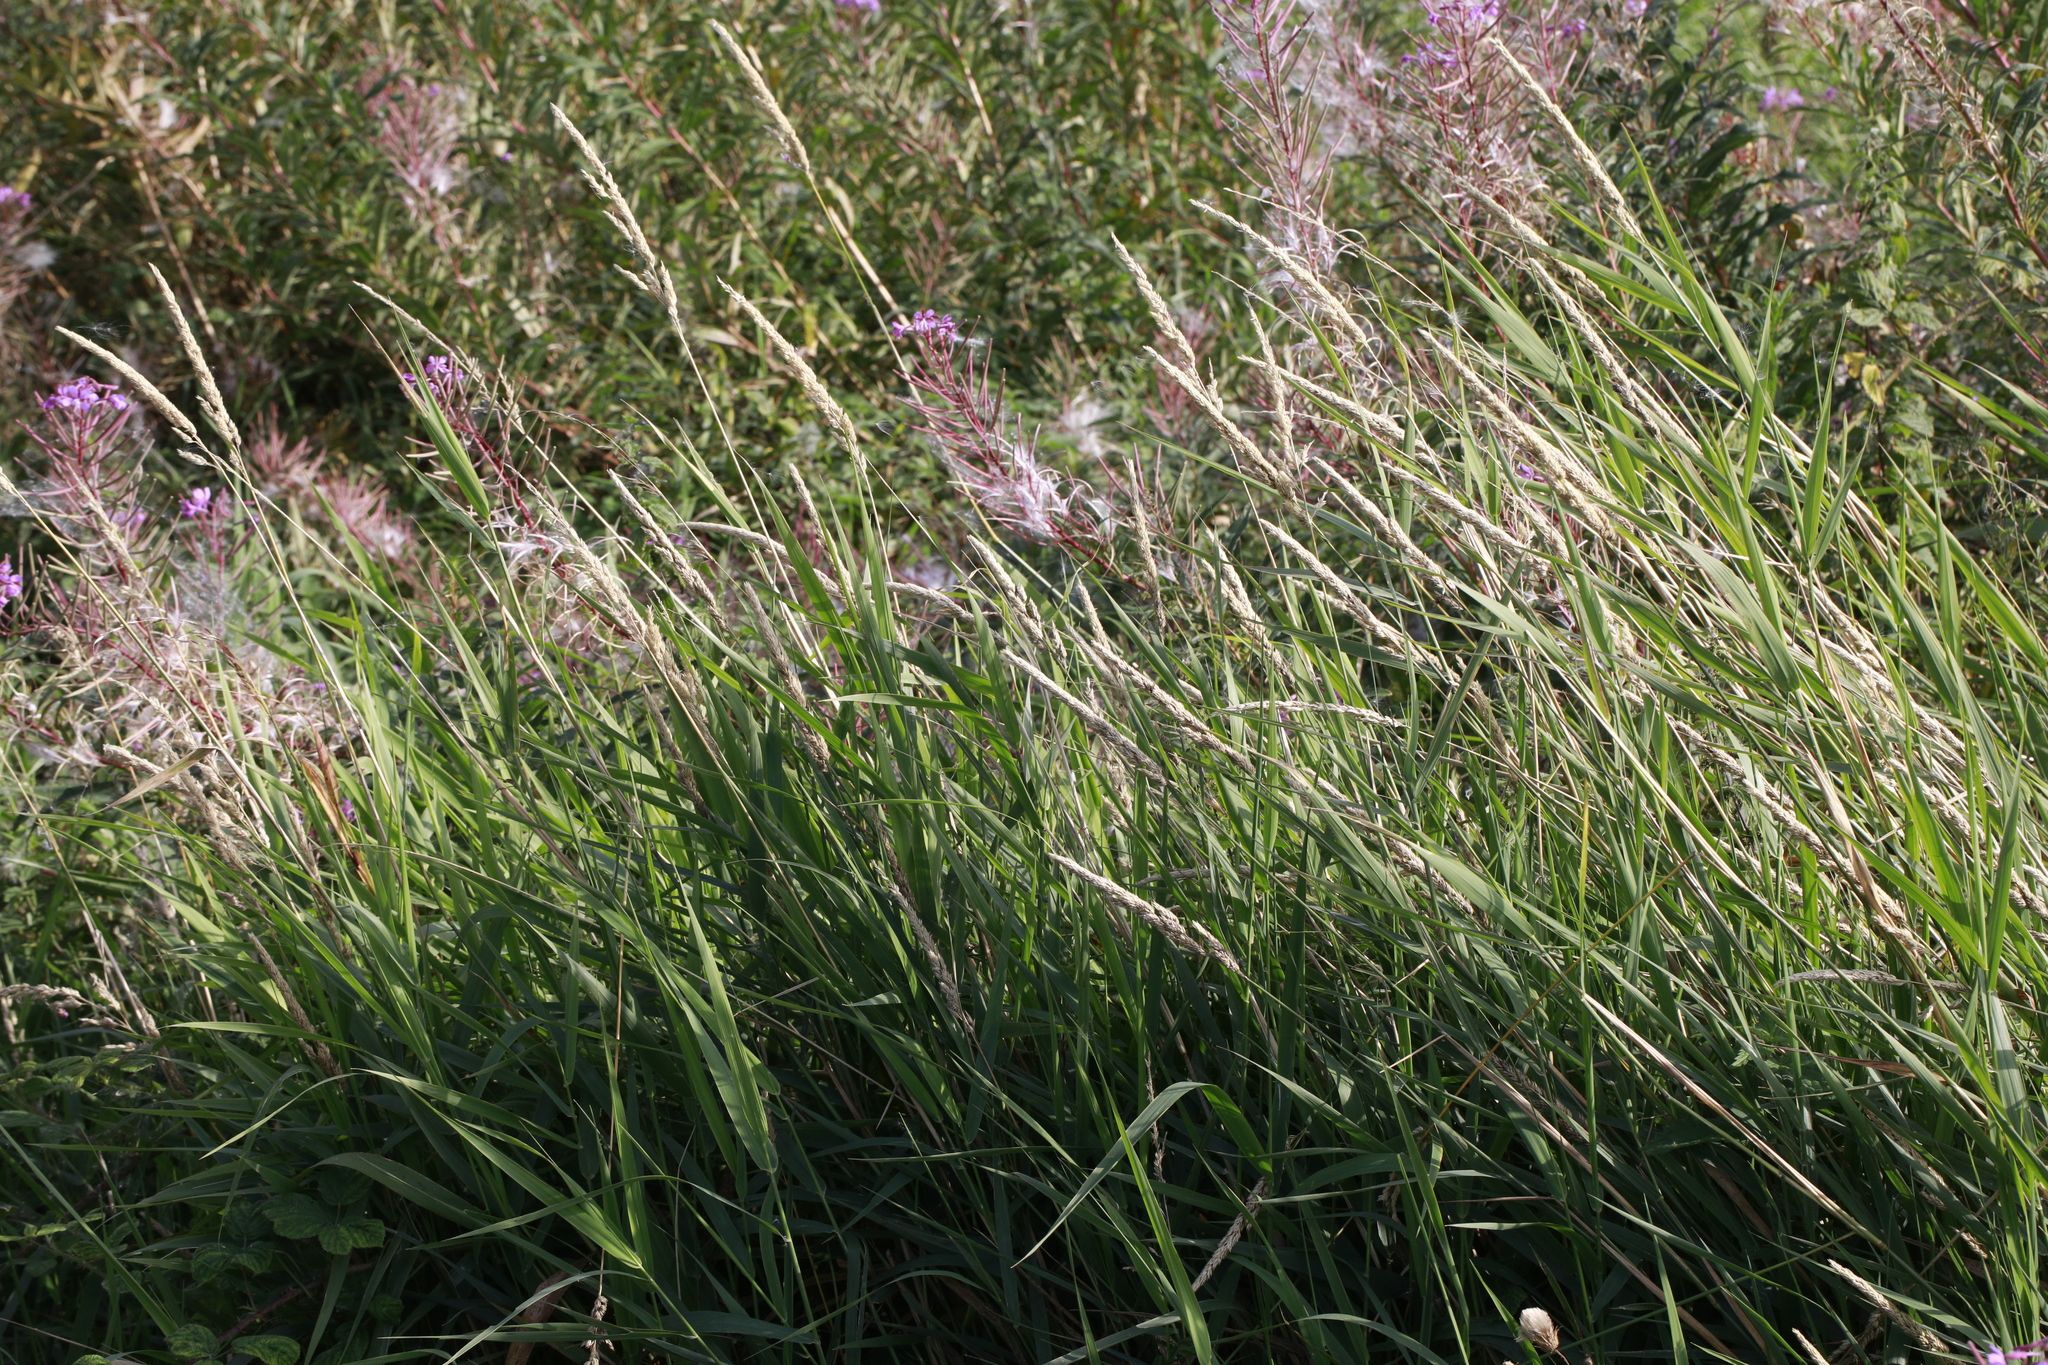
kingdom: Plantae
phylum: Tracheophyta
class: Liliopsida
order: Poales
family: Poaceae
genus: Phalaris
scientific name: Phalaris arundinacea
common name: Reed canary-grass
